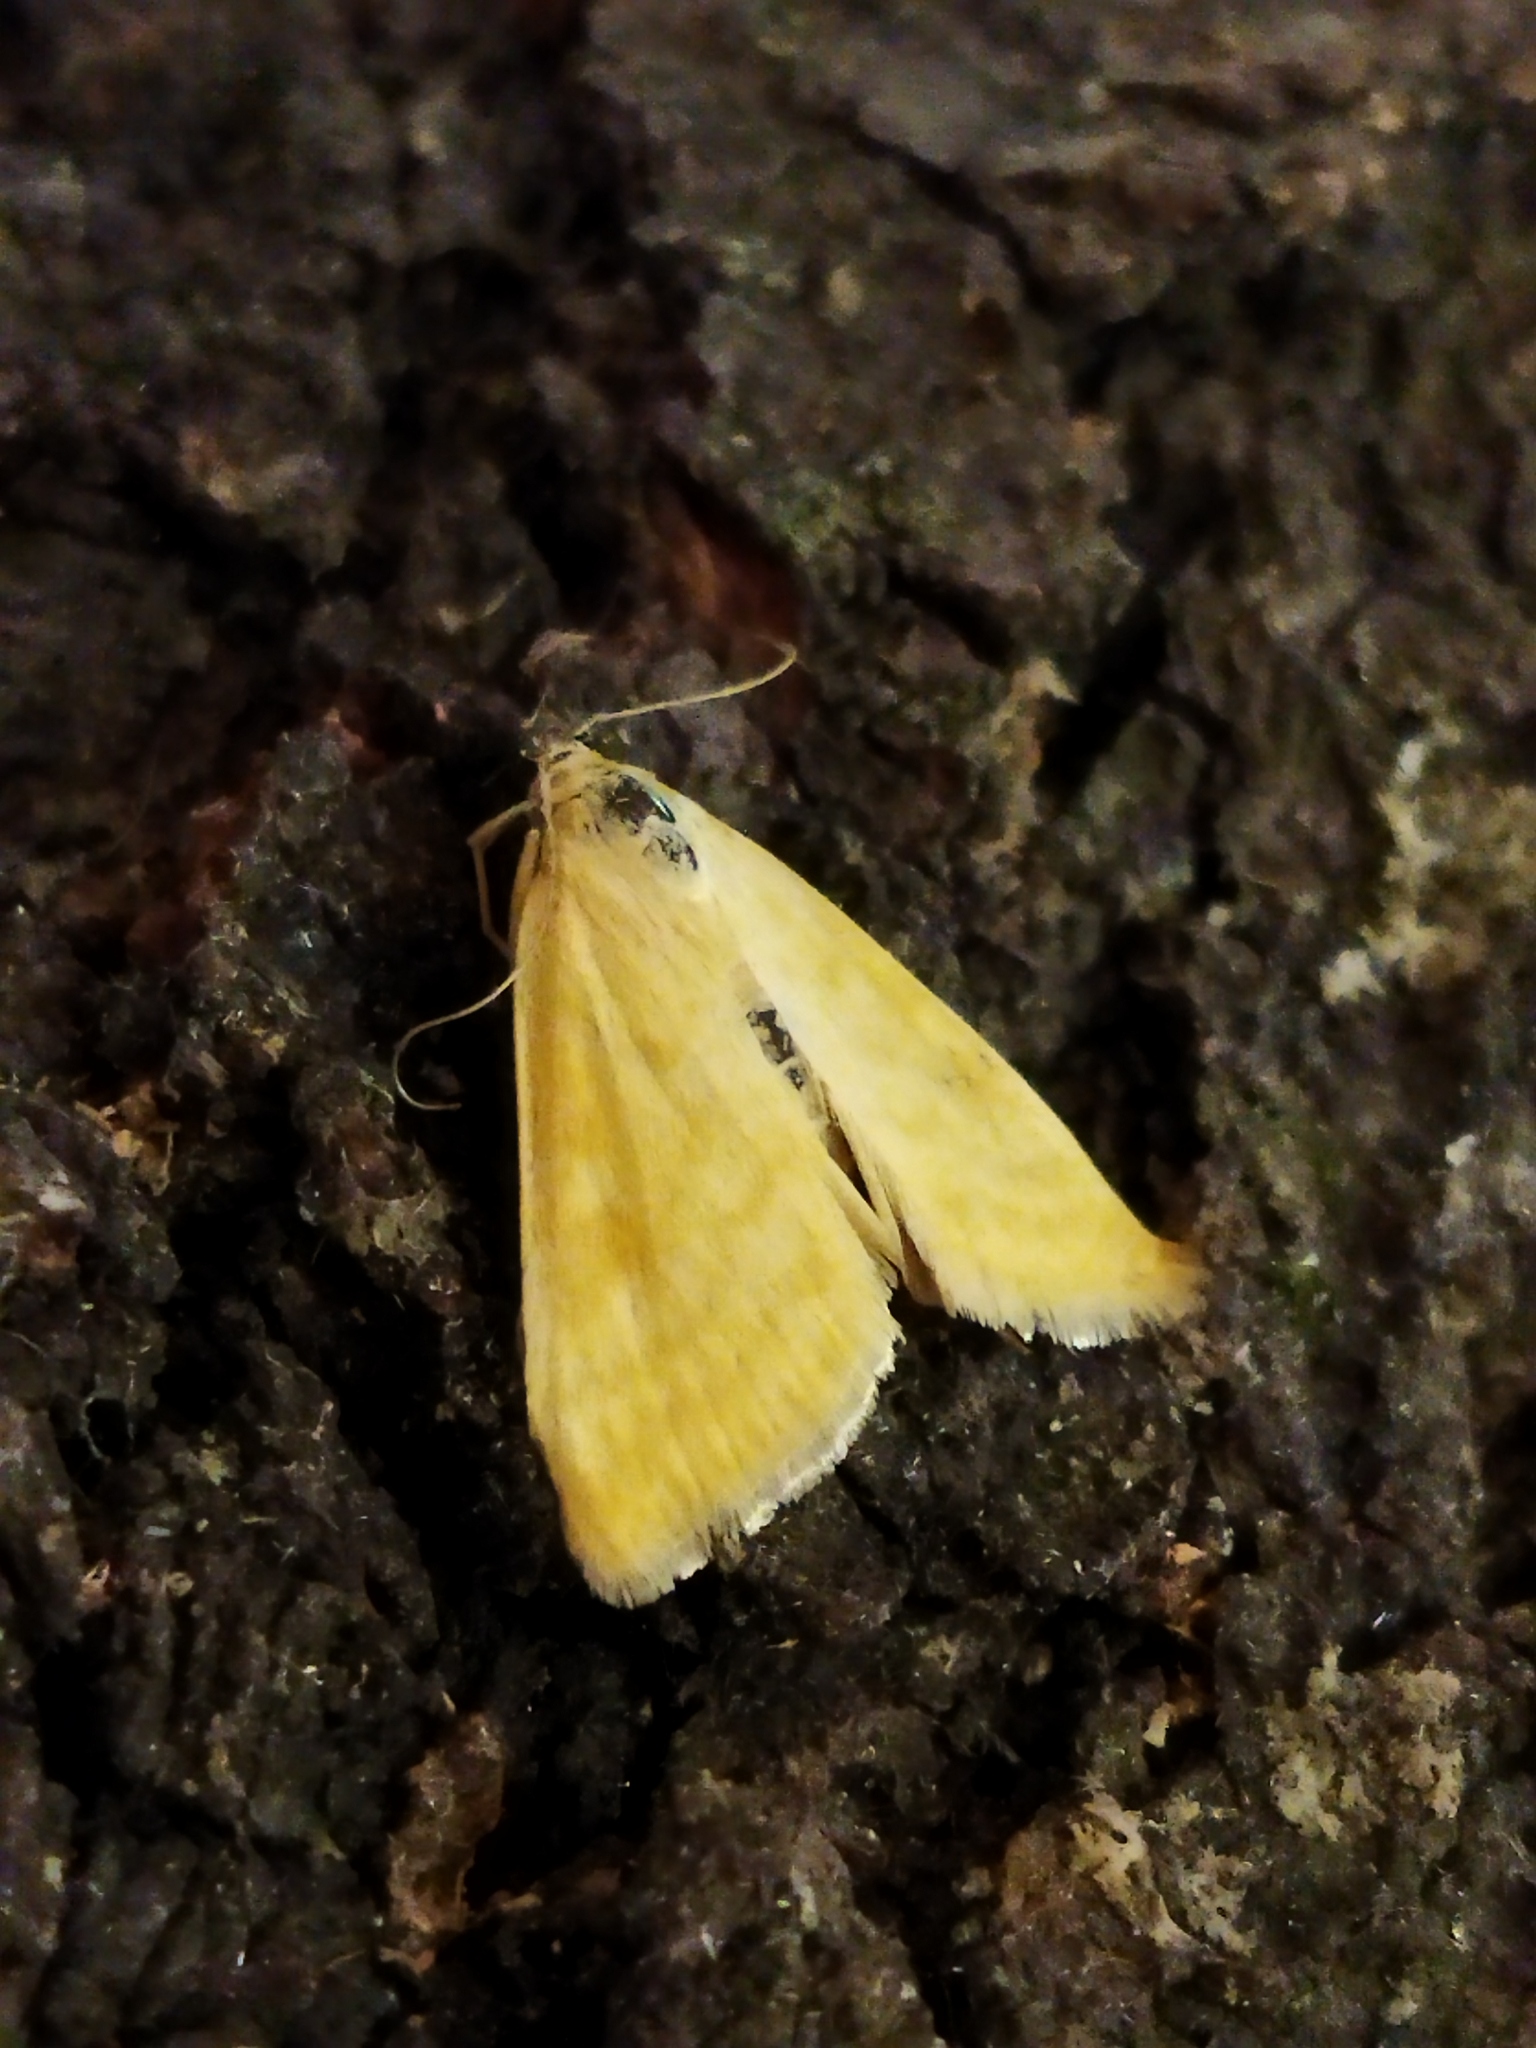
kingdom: Animalia
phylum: Arthropoda
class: Insecta
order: Lepidoptera
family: Crambidae
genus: Sitochroa
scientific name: Sitochroa verticalis
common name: Lesser pearl
